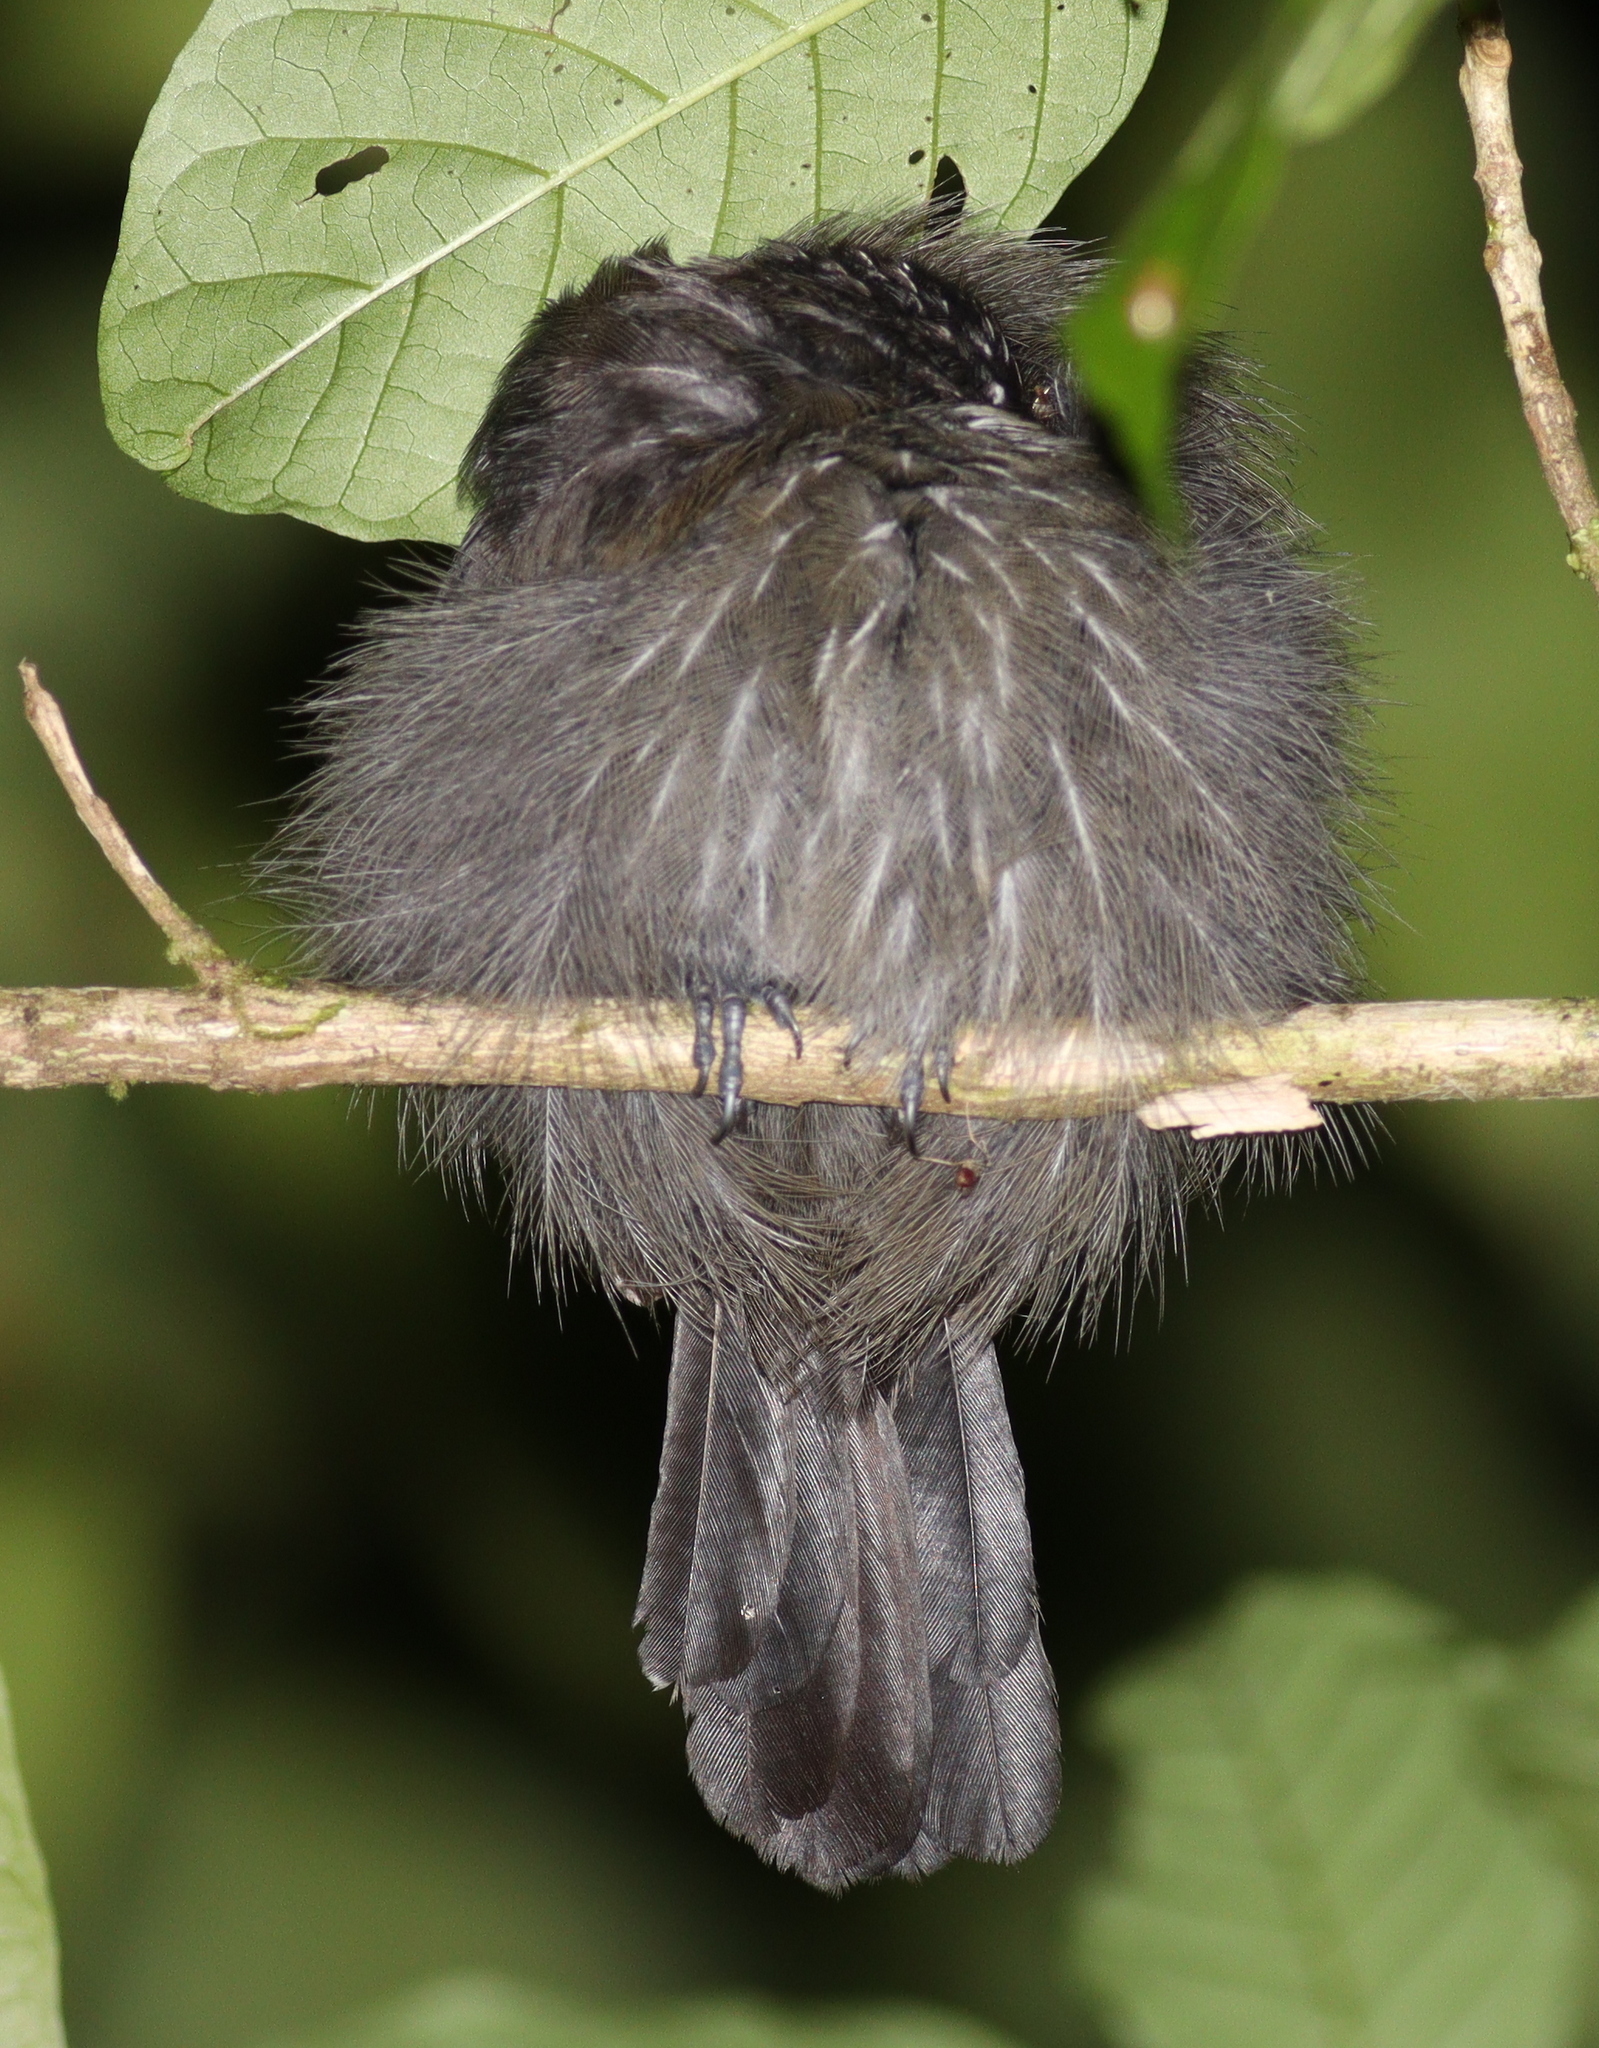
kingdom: Animalia
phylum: Chordata
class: Aves
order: Passeriformes
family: Thamnophilidae
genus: Thamnophilus
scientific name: Thamnophilus bridgesi
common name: Black-hooded antshrike
